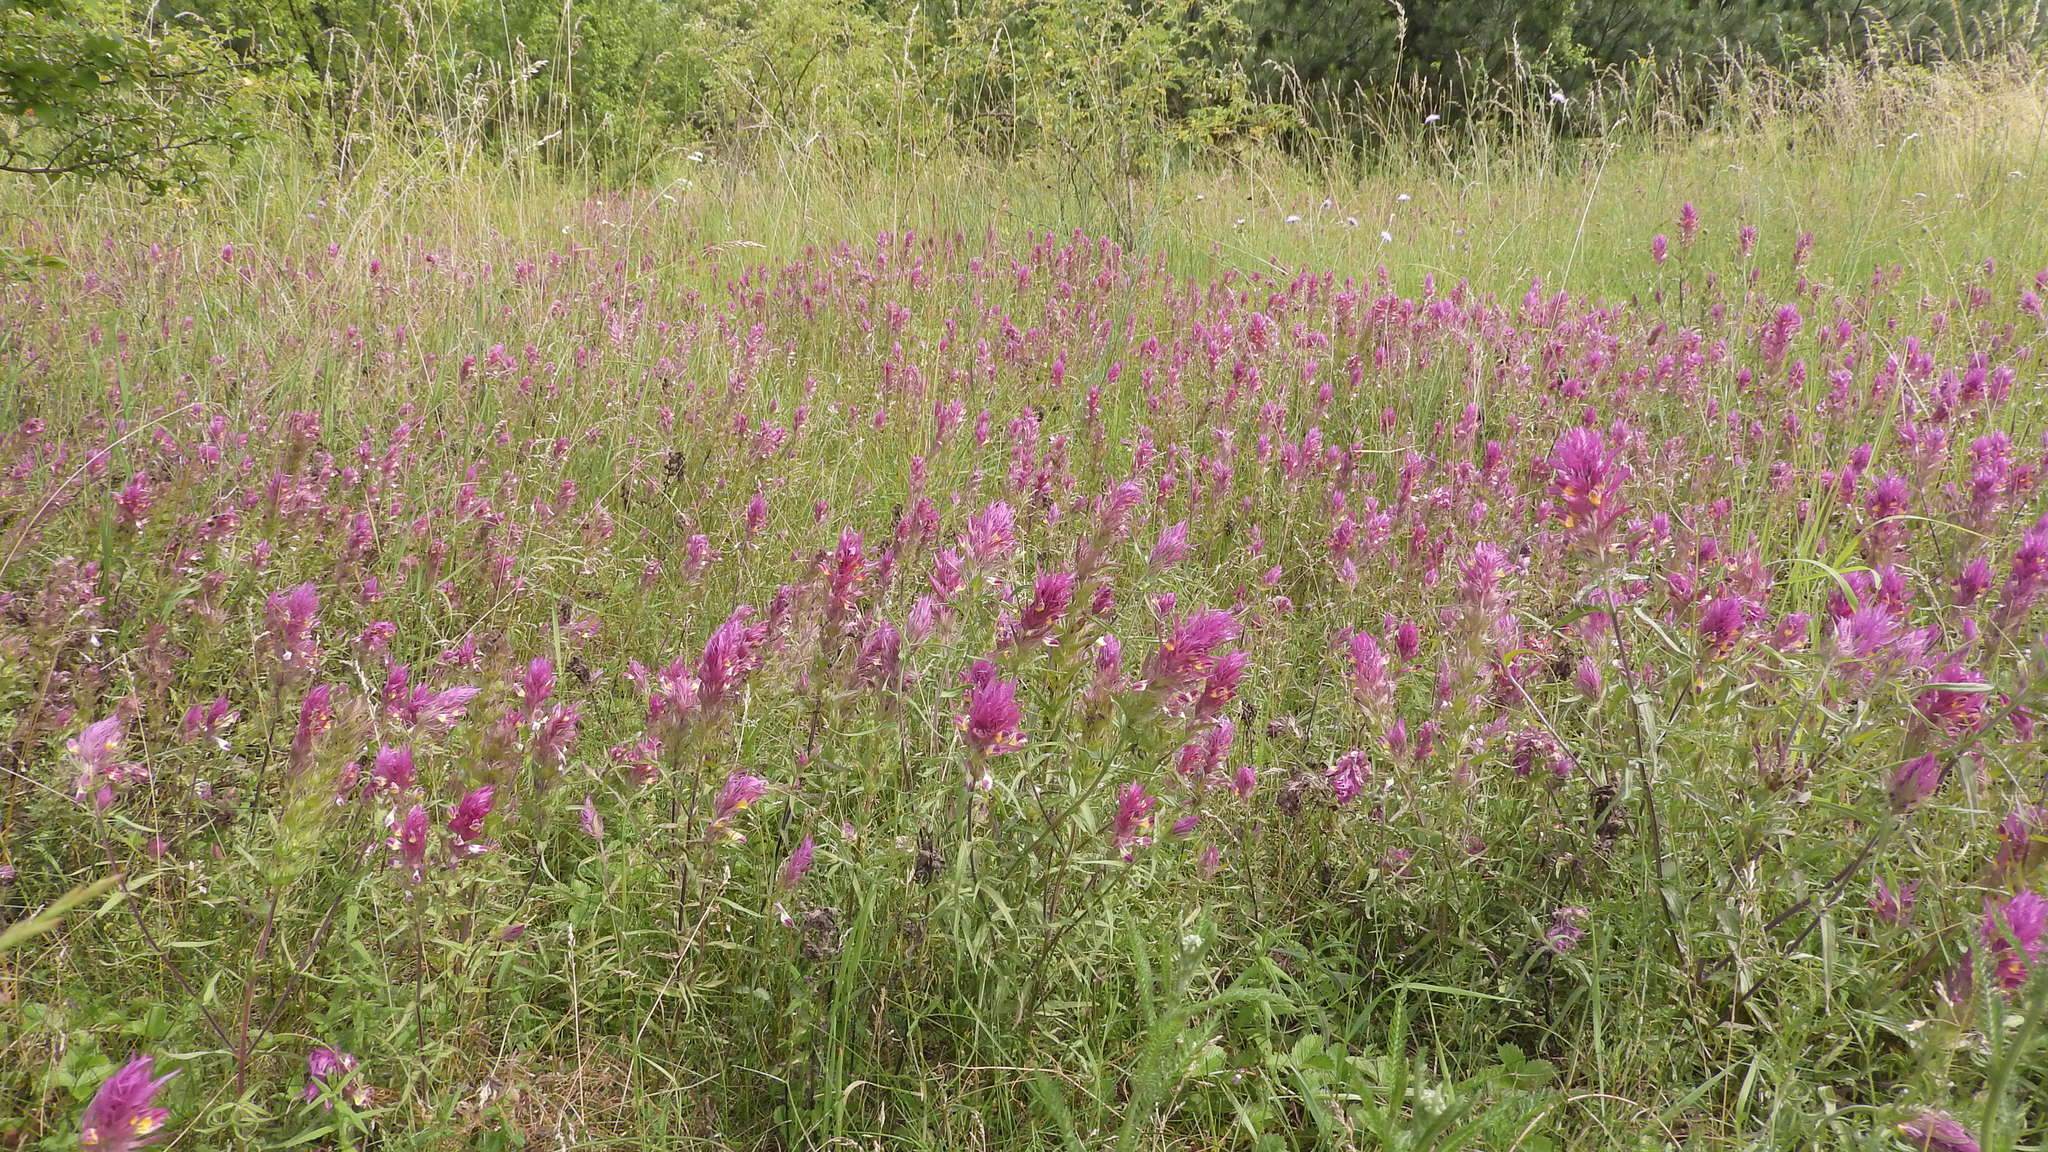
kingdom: Plantae
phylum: Tracheophyta
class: Magnoliopsida
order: Lamiales
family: Orobanchaceae
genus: Melampyrum
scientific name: Melampyrum arvense
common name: Field cow-wheat
